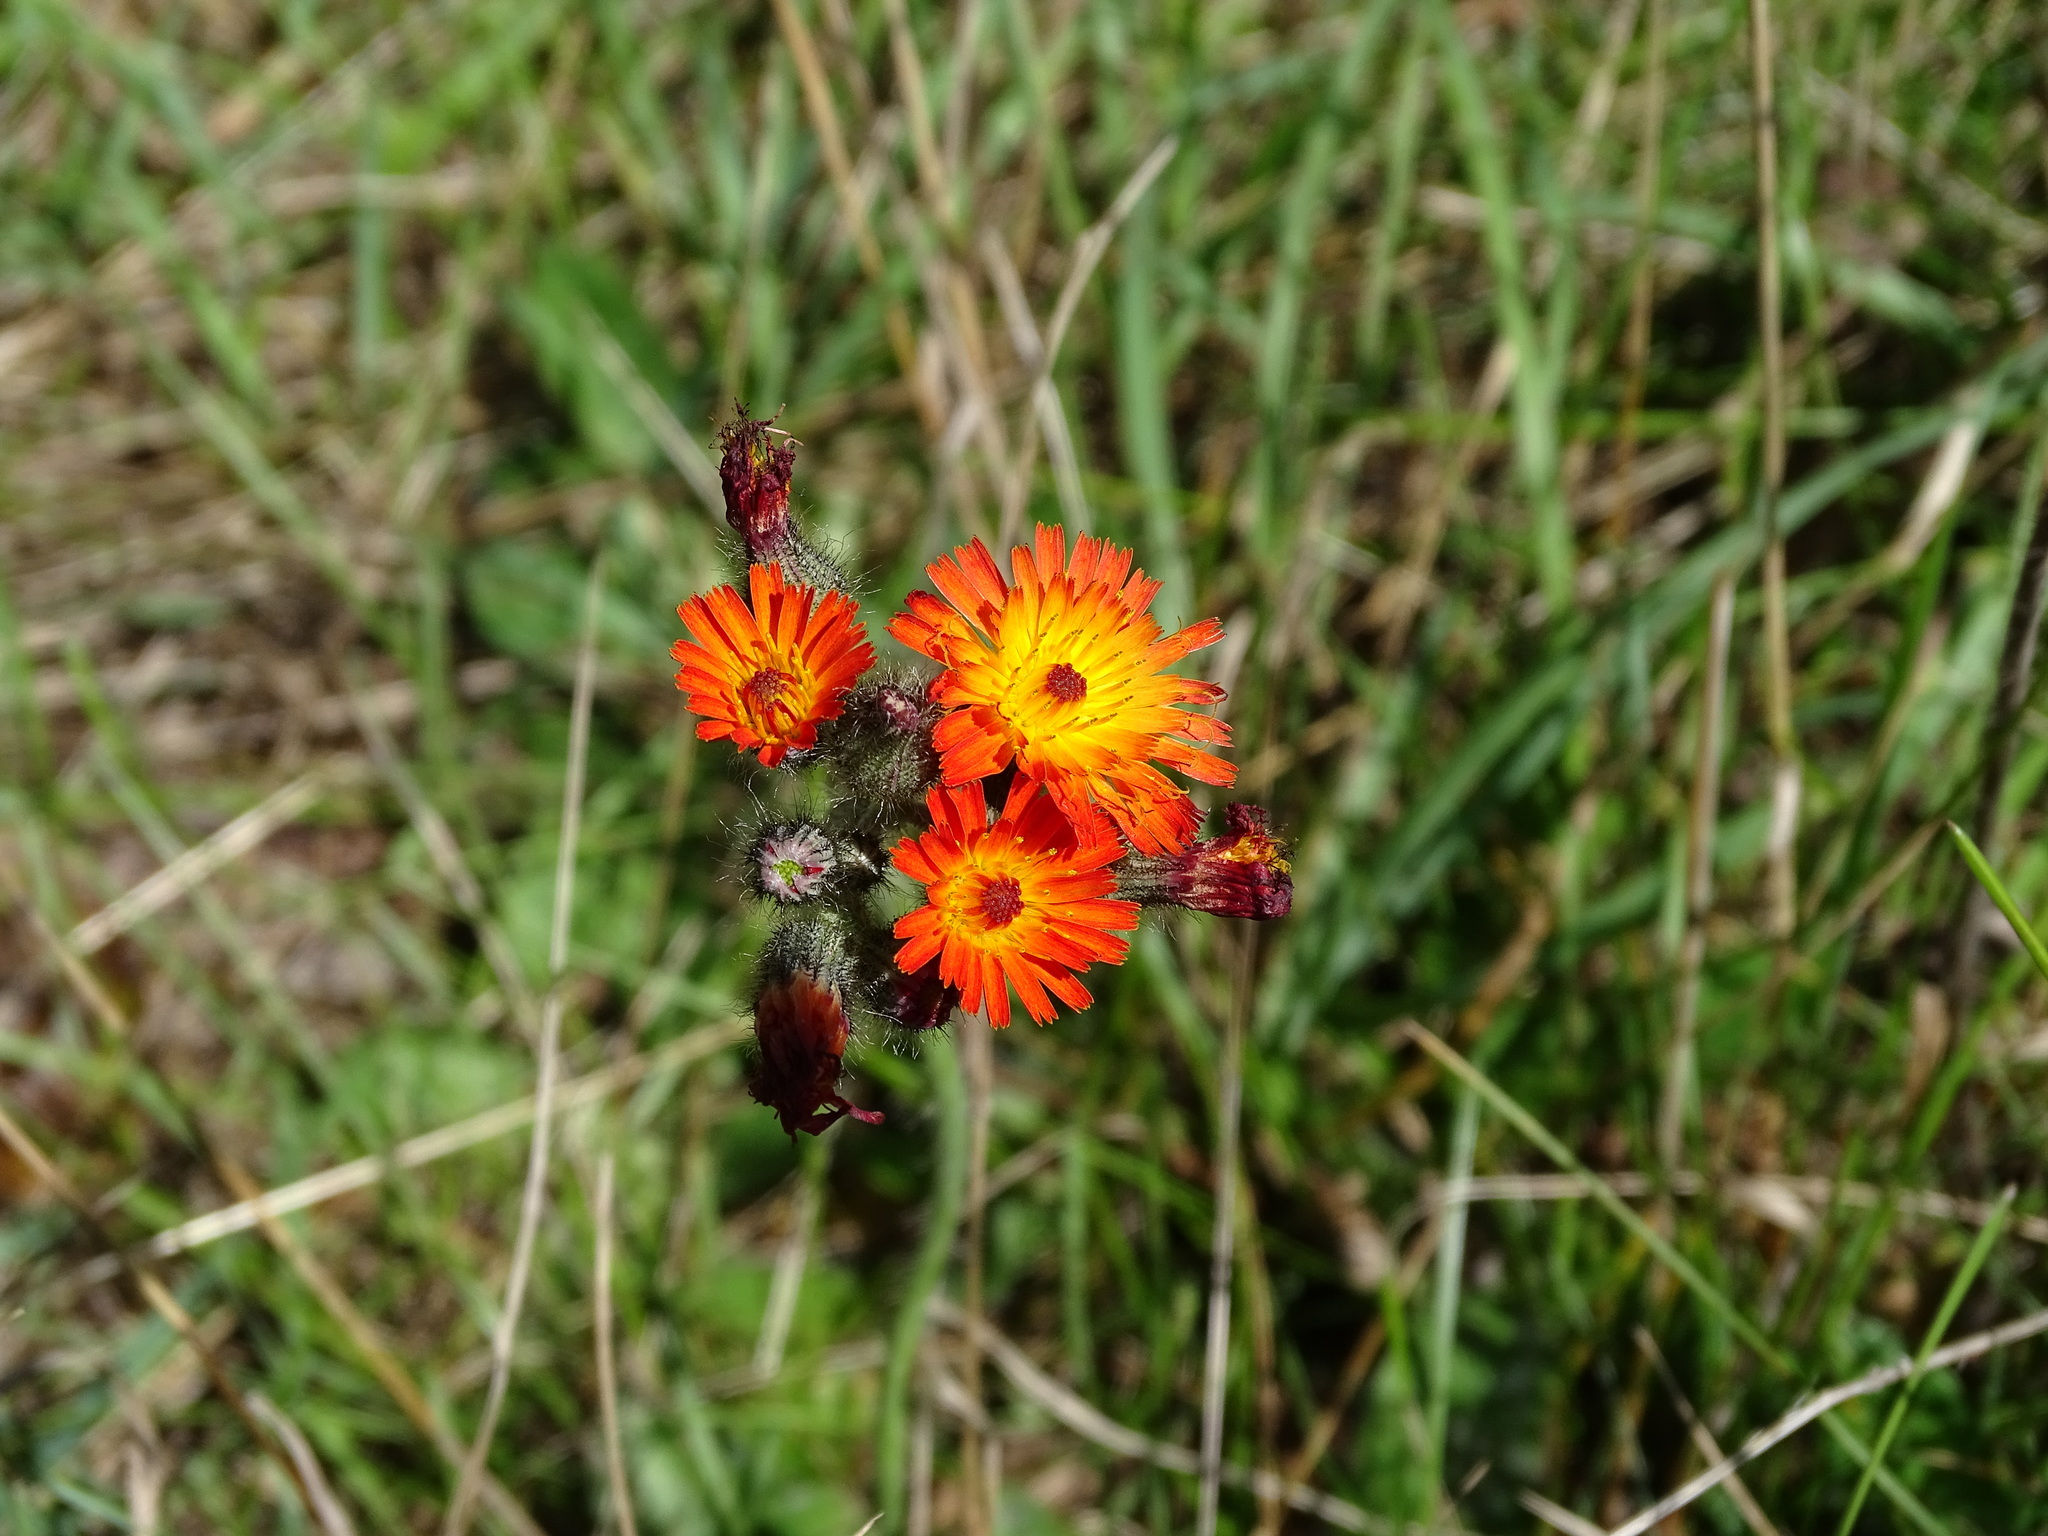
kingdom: Plantae
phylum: Tracheophyta
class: Magnoliopsida
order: Asterales
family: Asteraceae
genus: Pilosella
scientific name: Pilosella aurantiaca
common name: Fox-and-cubs
